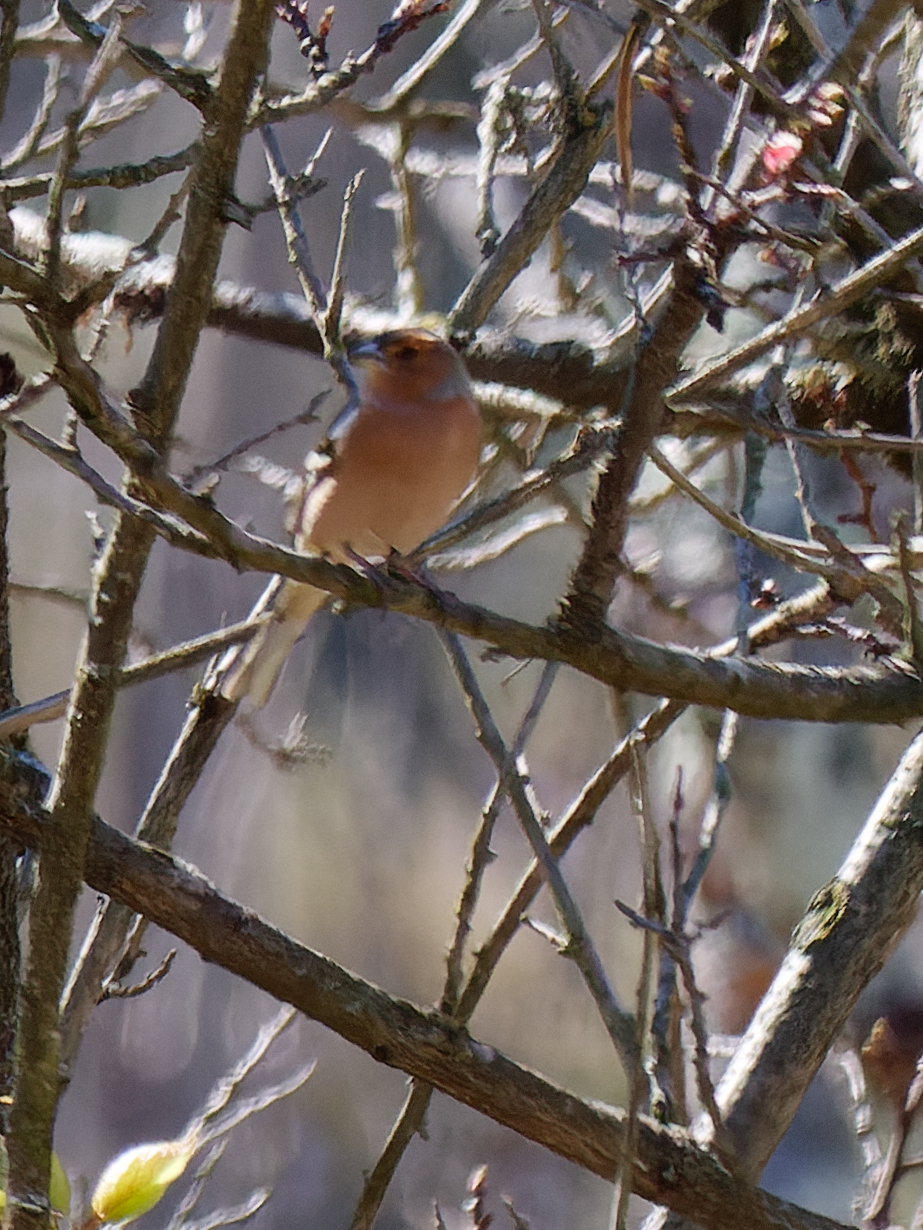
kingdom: Animalia
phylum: Chordata
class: Aves
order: Passeriformes
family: Fringillidae
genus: Fringilla
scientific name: Fringilla coelebs
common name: Common chaffinch
